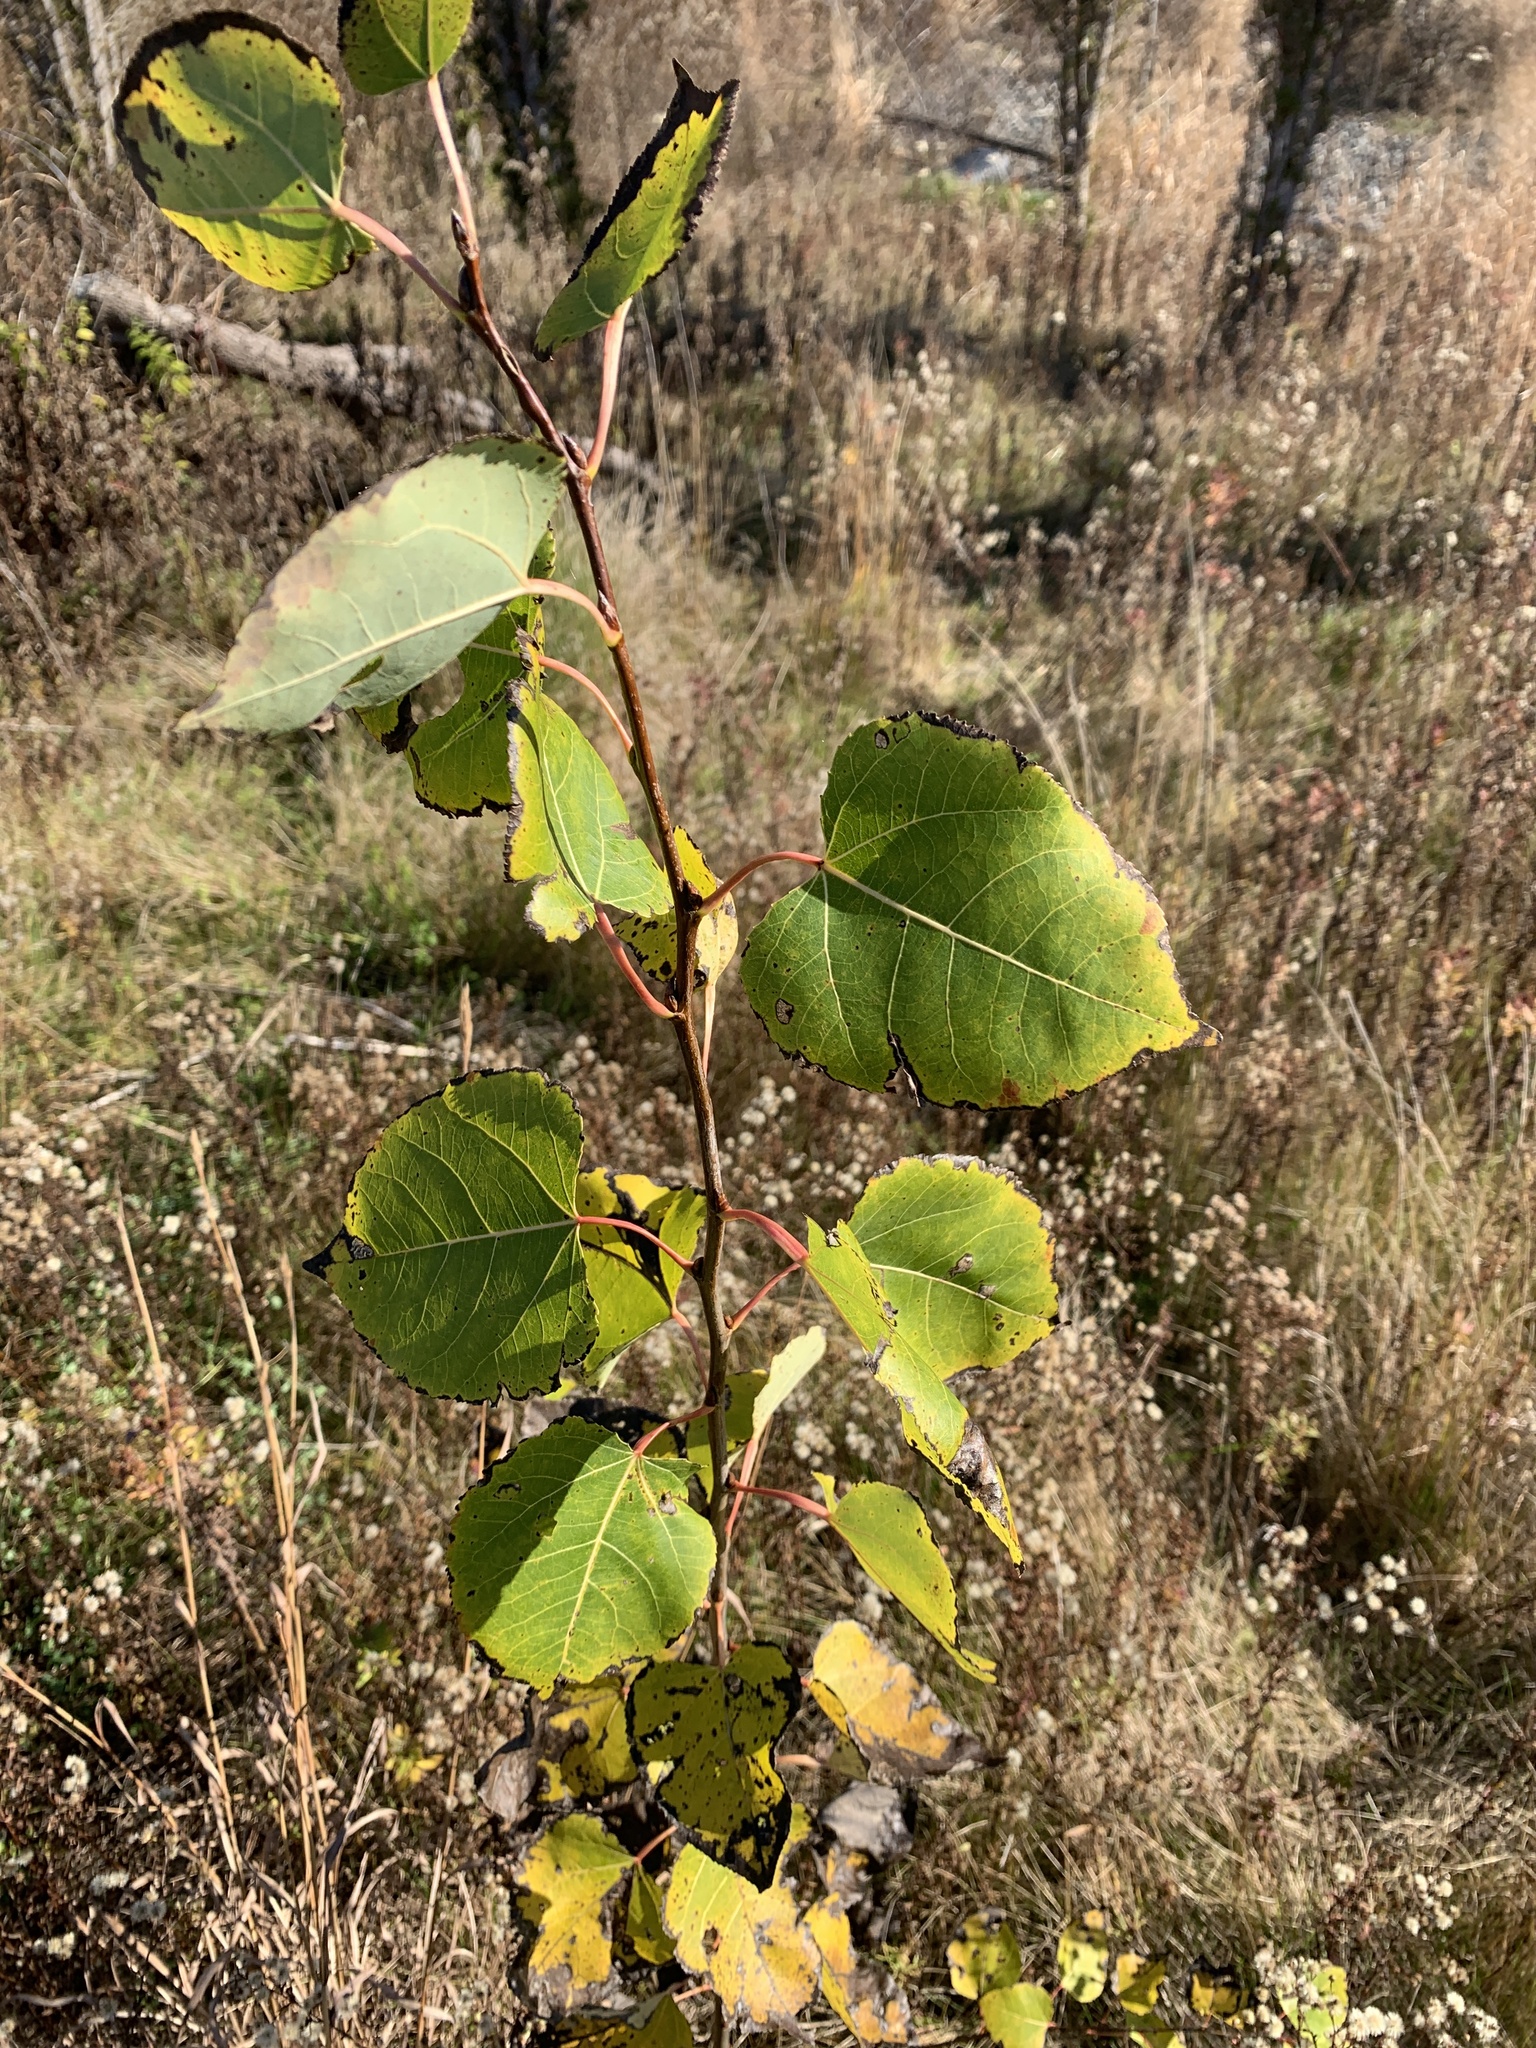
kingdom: Plantae
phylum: Tracheophyta
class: Magnoliopsida
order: Malpighiales
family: Salicaceae
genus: Populus
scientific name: Populus deltoides
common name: Eastern cottonwood
